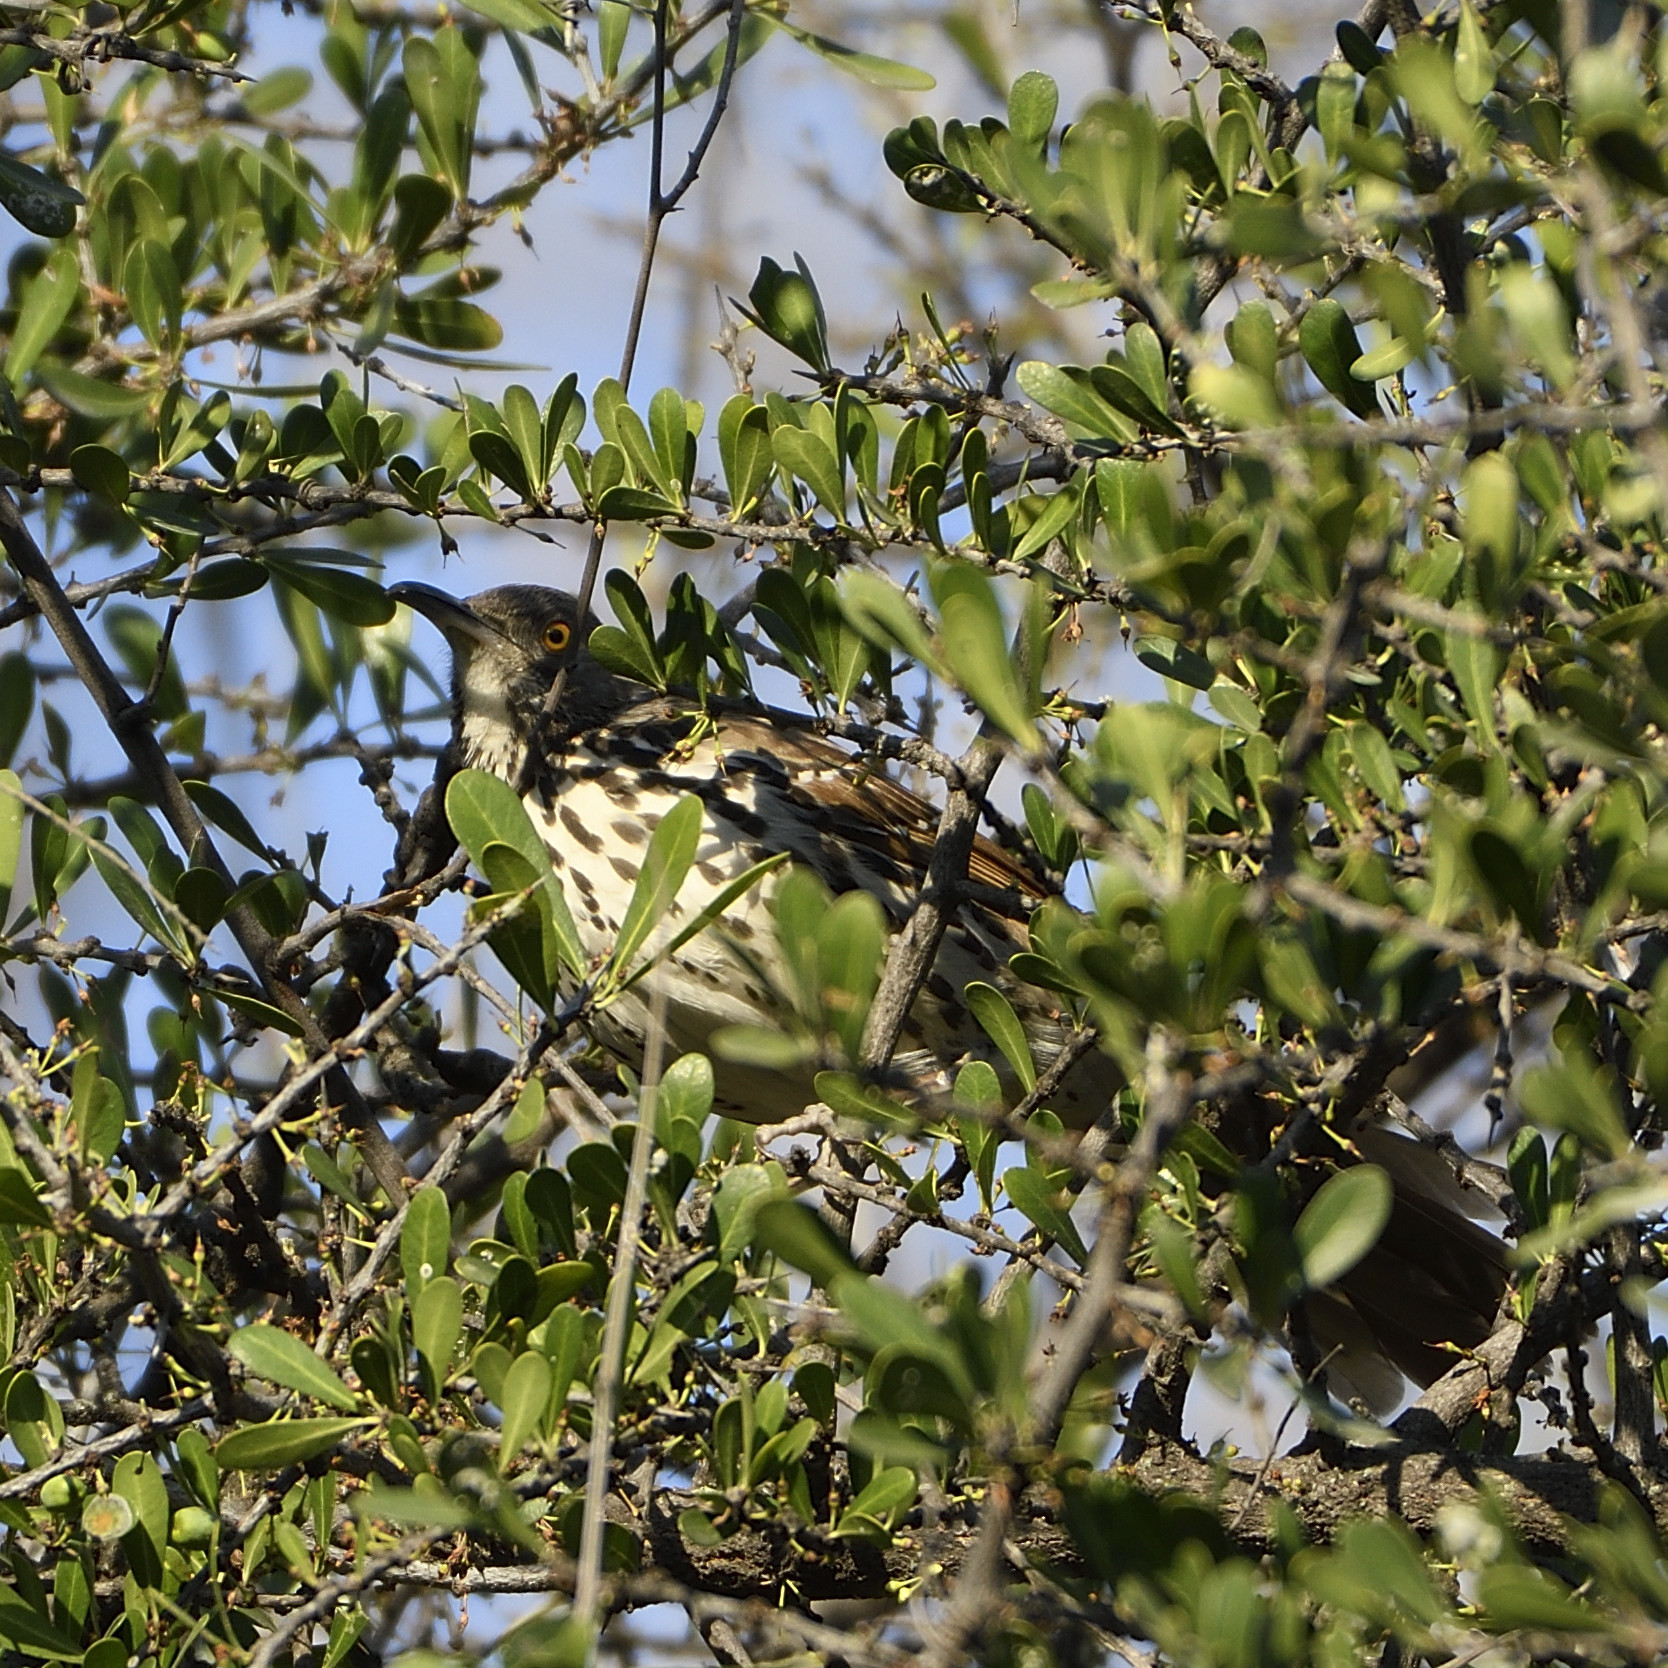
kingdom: Animalia
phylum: Chordata
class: Aves
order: Passeriformes
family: Mimidae
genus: Toxostoma
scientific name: Toxostoma longirostre
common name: Long-billed thrasher
